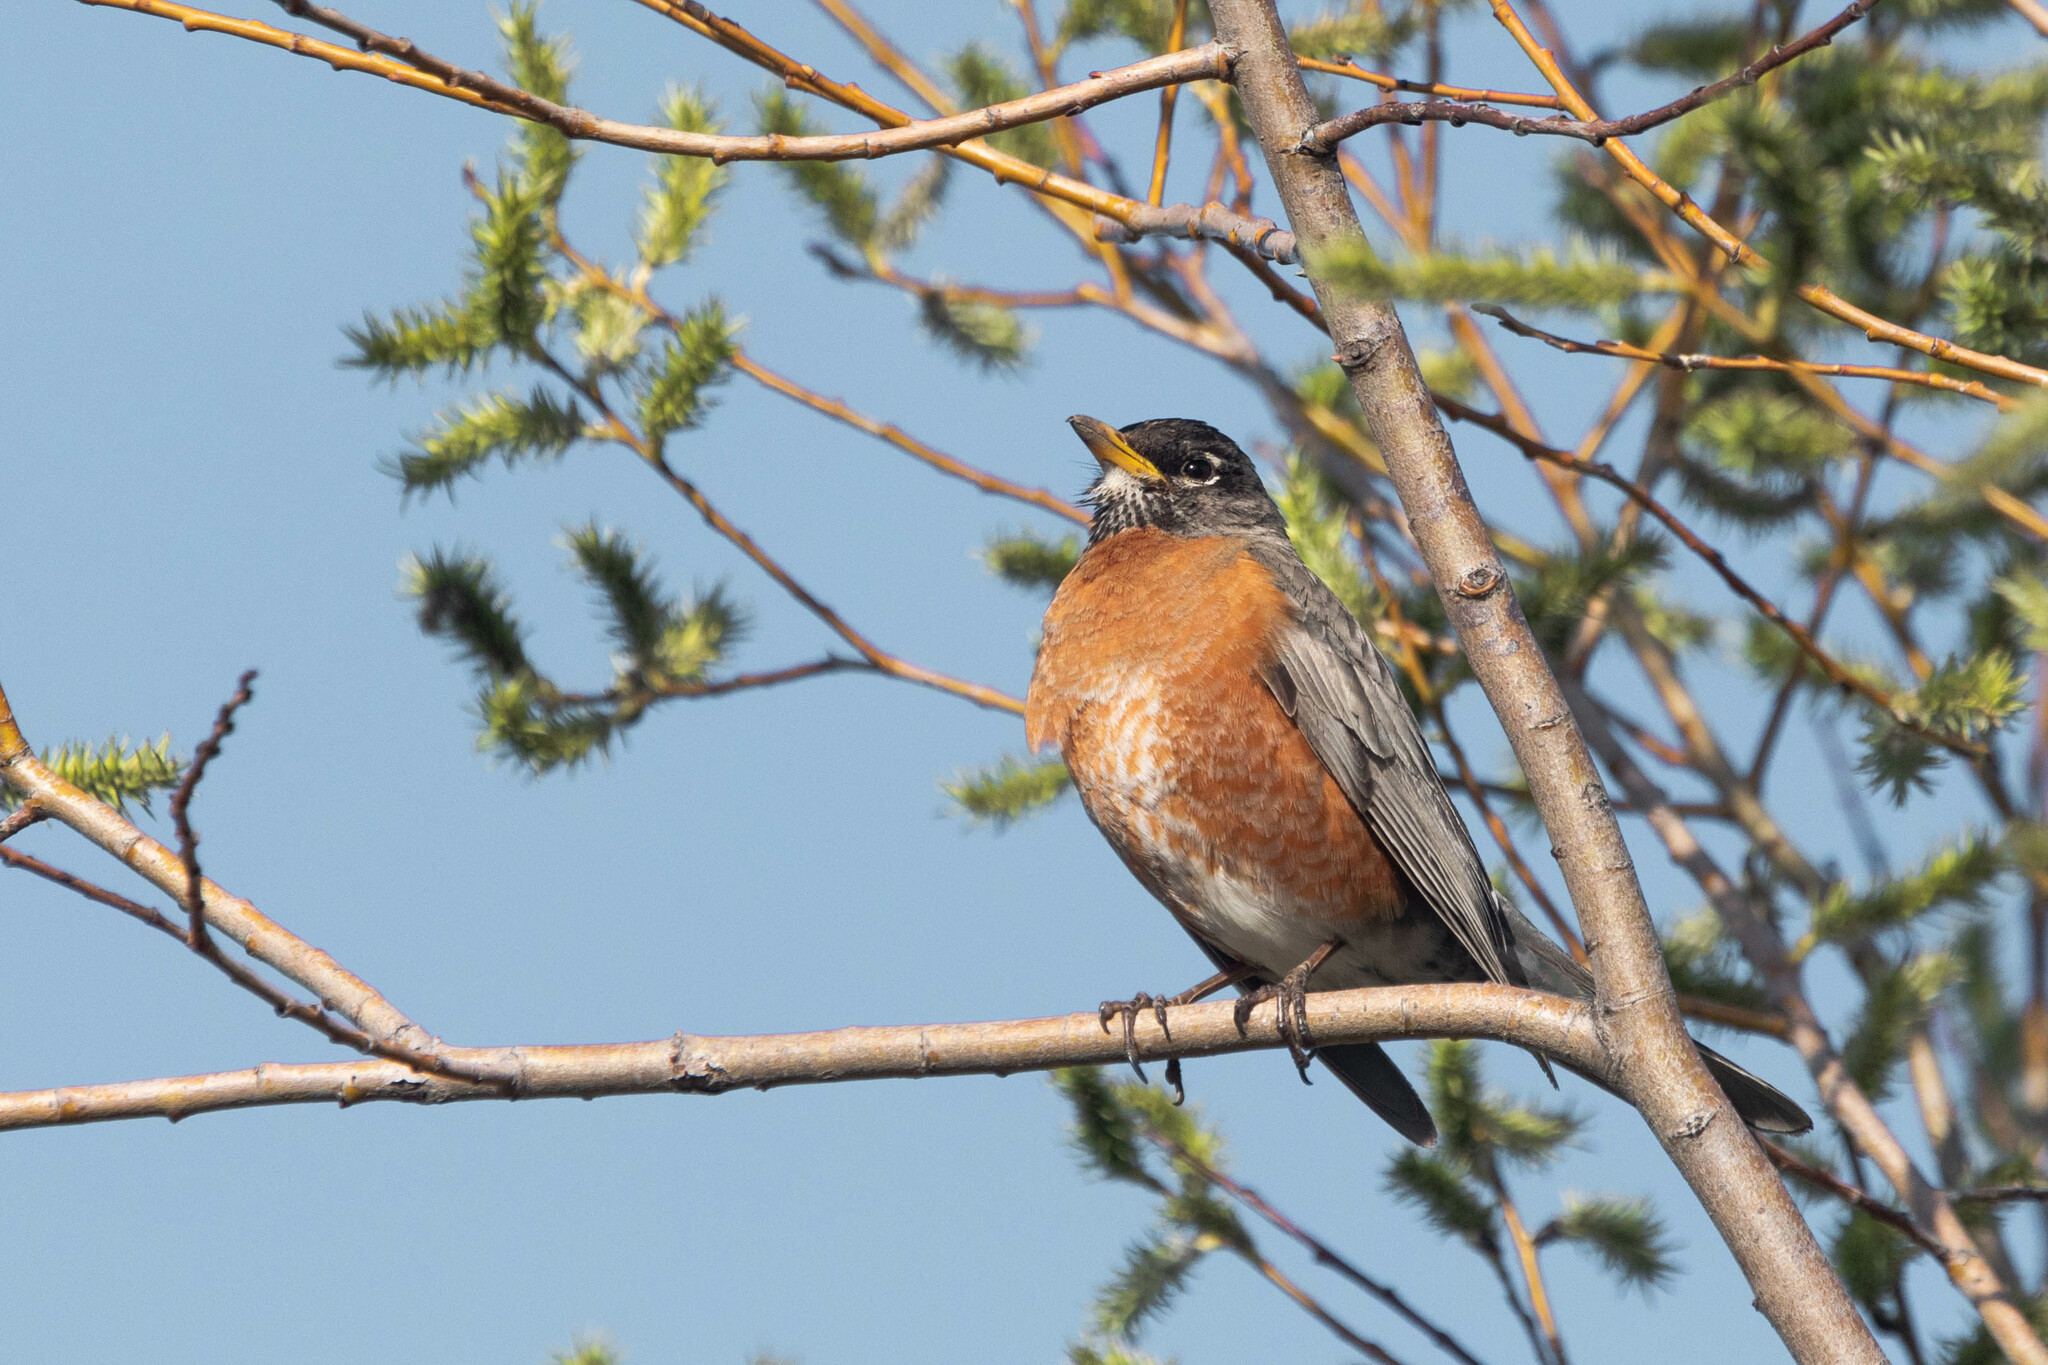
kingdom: Animalia
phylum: Chordata
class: Aves
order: Passeriformes
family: Turdidae
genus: Turdus
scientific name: Turdus migratorius
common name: American robin
